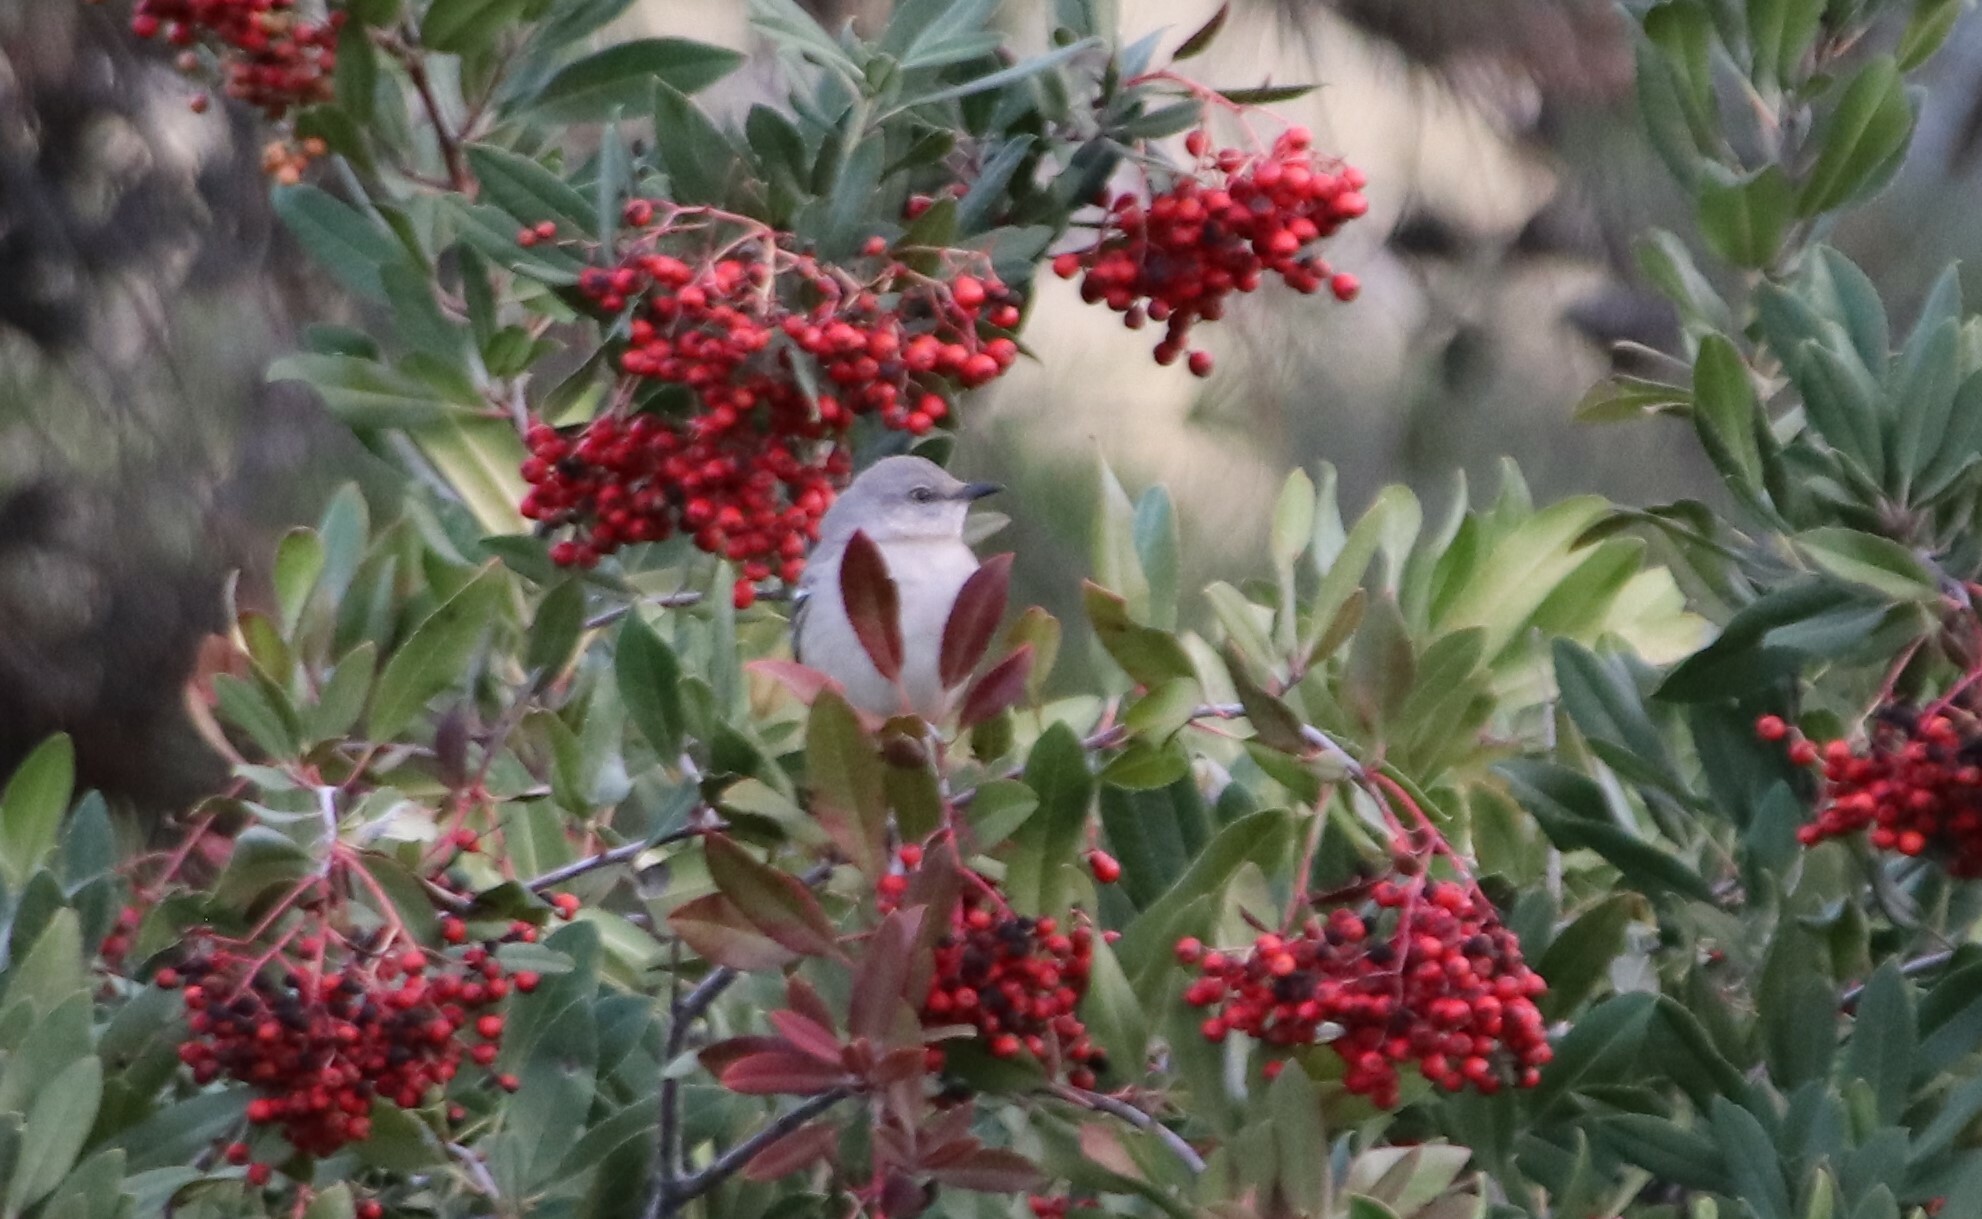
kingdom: Animalia
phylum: Chordata
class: Aves
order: Passeriformes
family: Mimidae
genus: Mimus
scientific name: Mimus polyglottos
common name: Northern mockingbird
